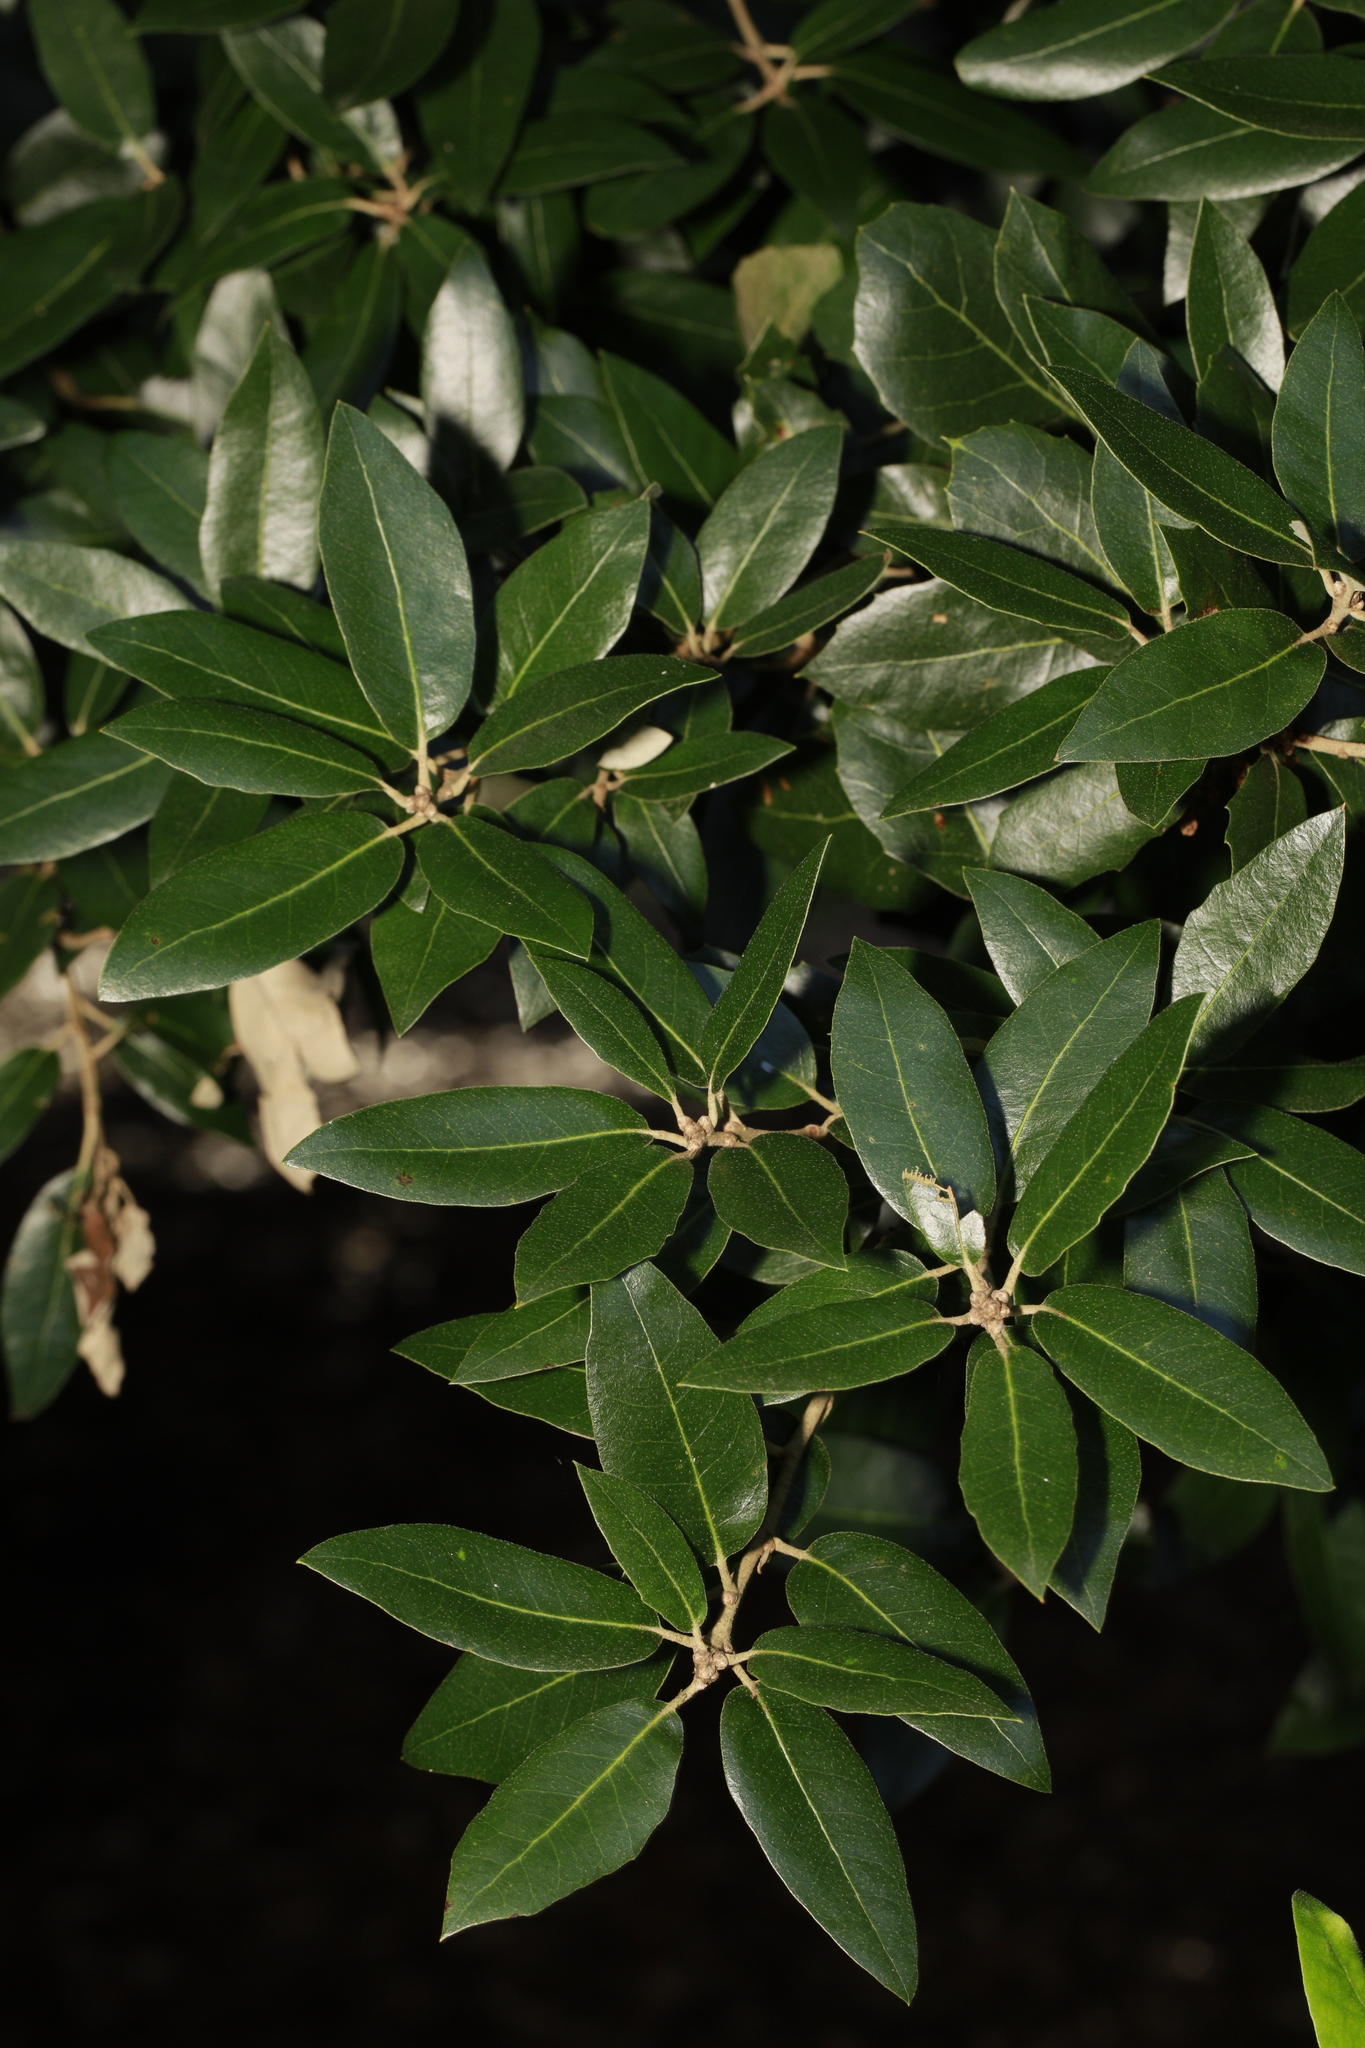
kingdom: Plantae
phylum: Tracheophyta
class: Magnoliopsida
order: Fagales
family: Fagaceae
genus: Quercus
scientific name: Quercus ilex
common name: Evergreen oak
